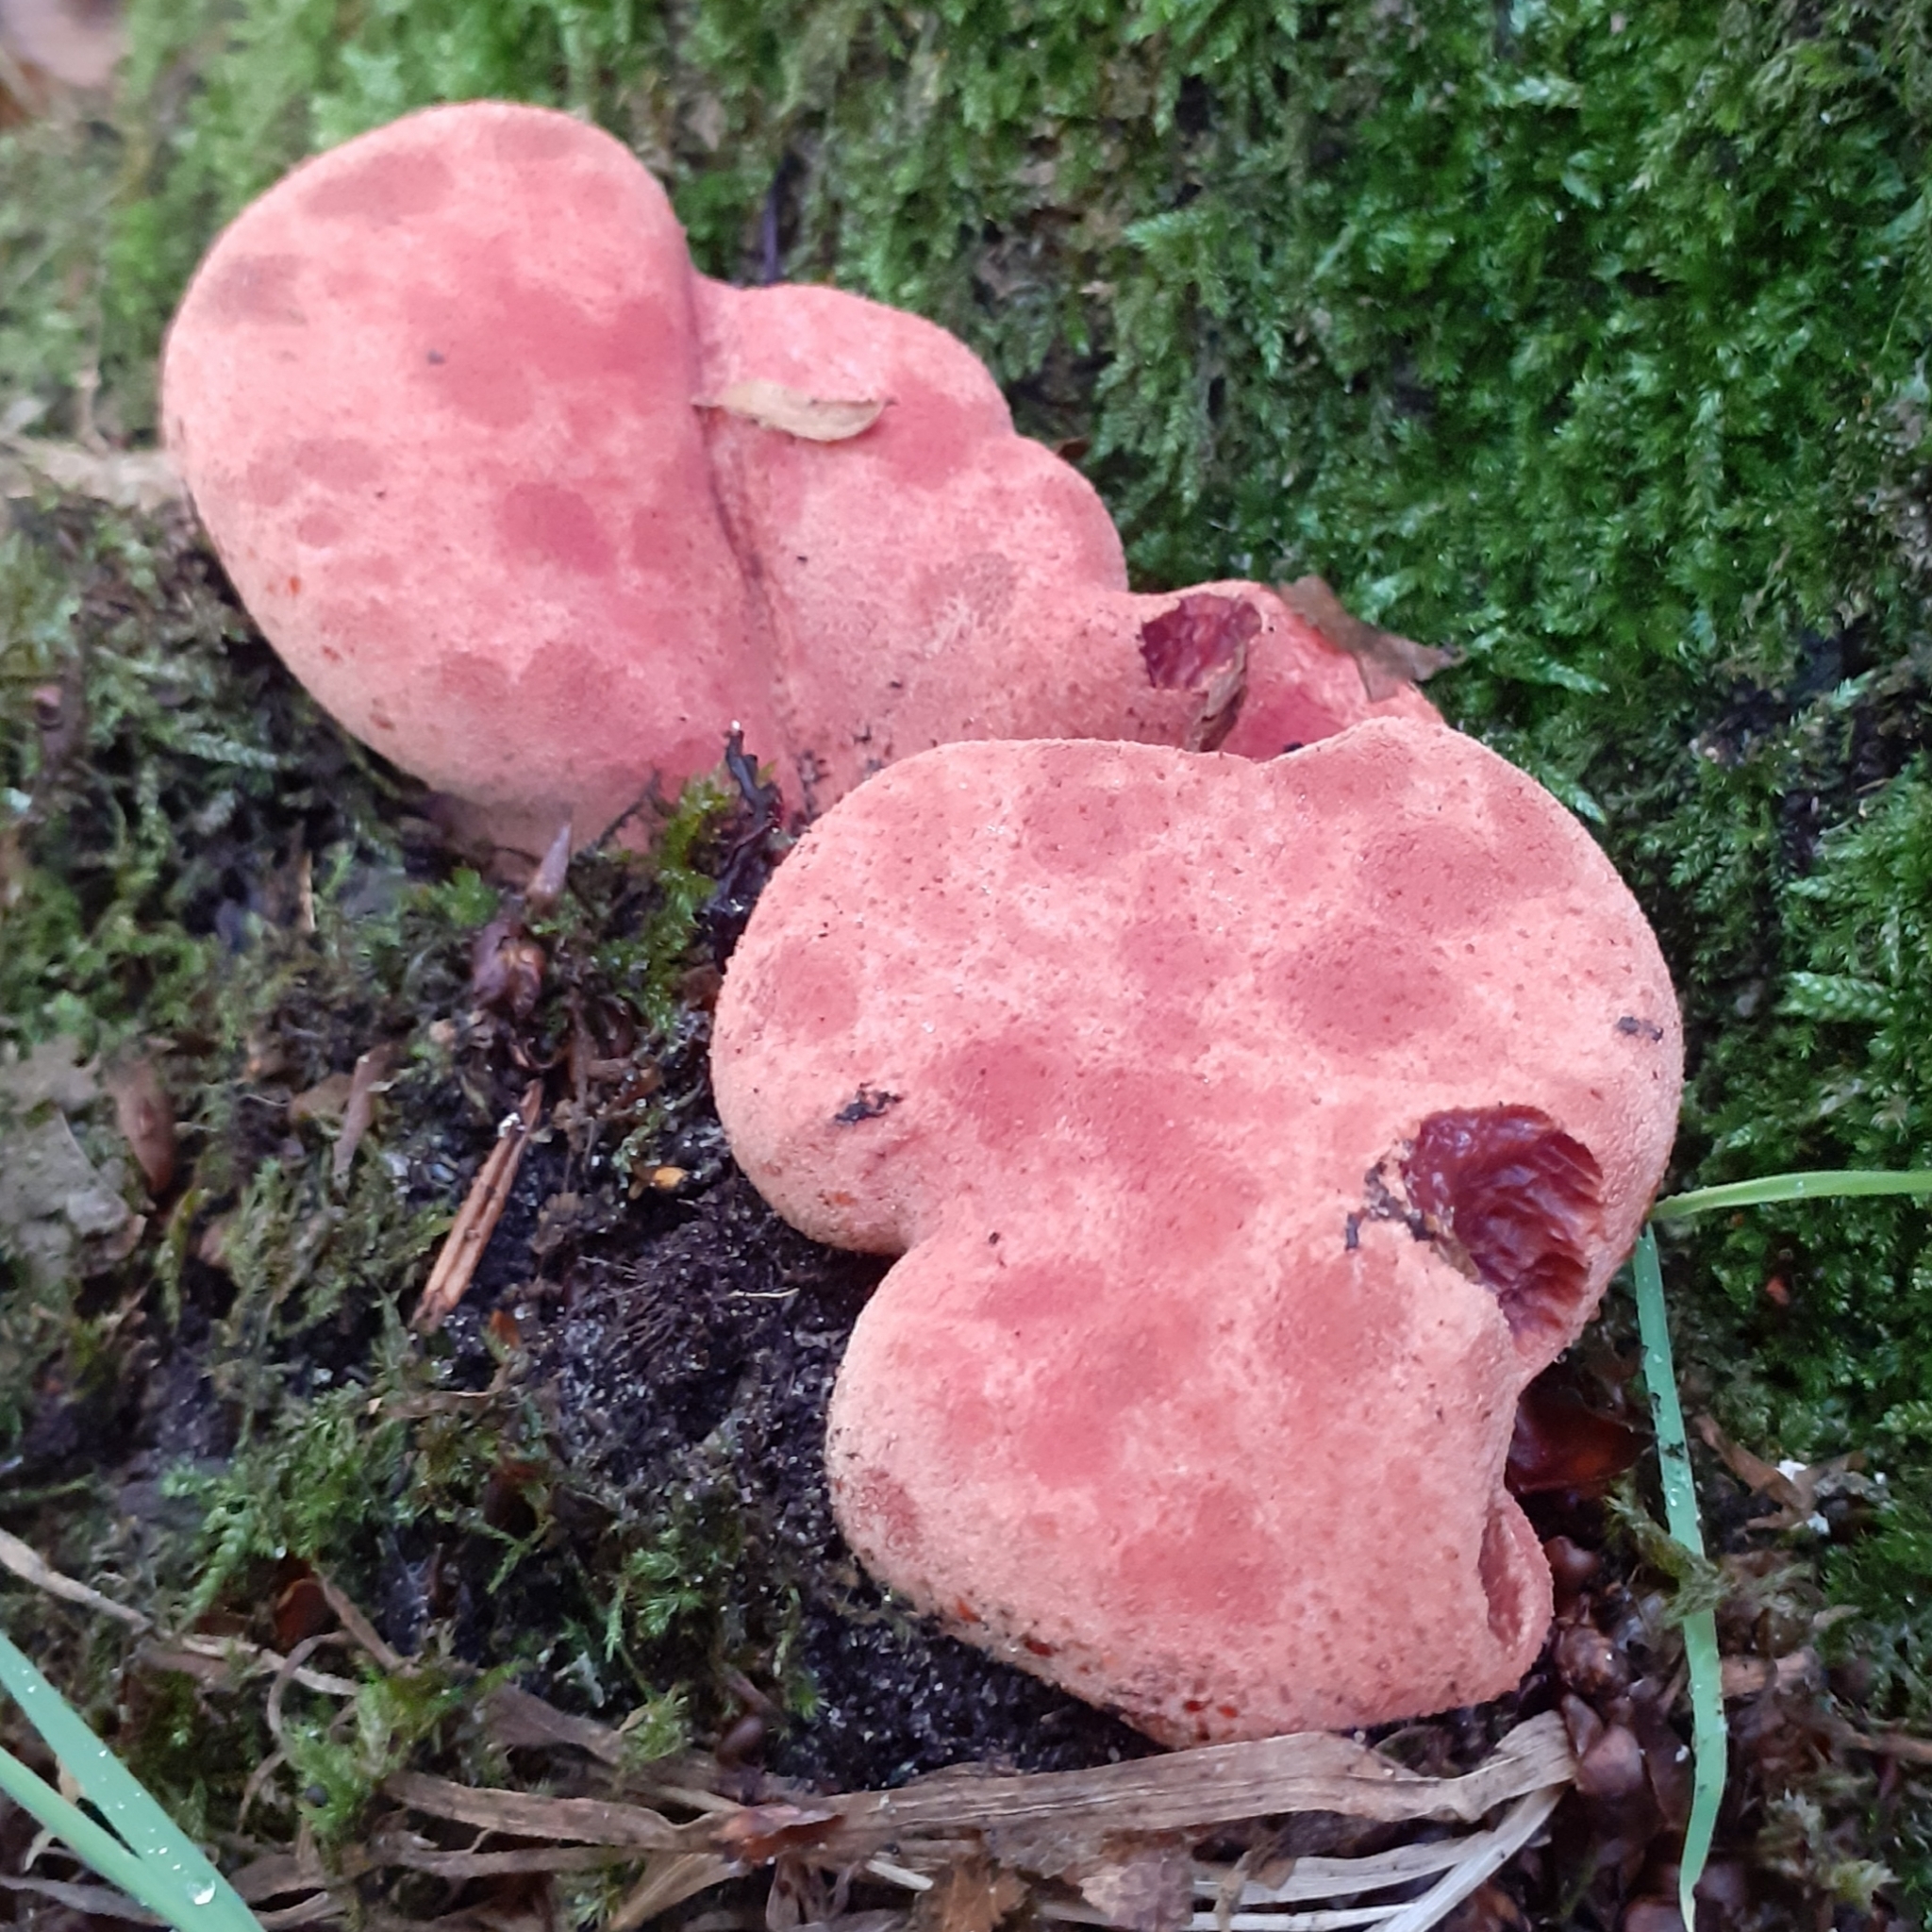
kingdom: Fungi
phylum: Basidiomycota
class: Agaricomycetes
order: Agaricales
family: Fistulinaceae
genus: Fistulina
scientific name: Fistulina hepatica
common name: Beef-steak fungus
